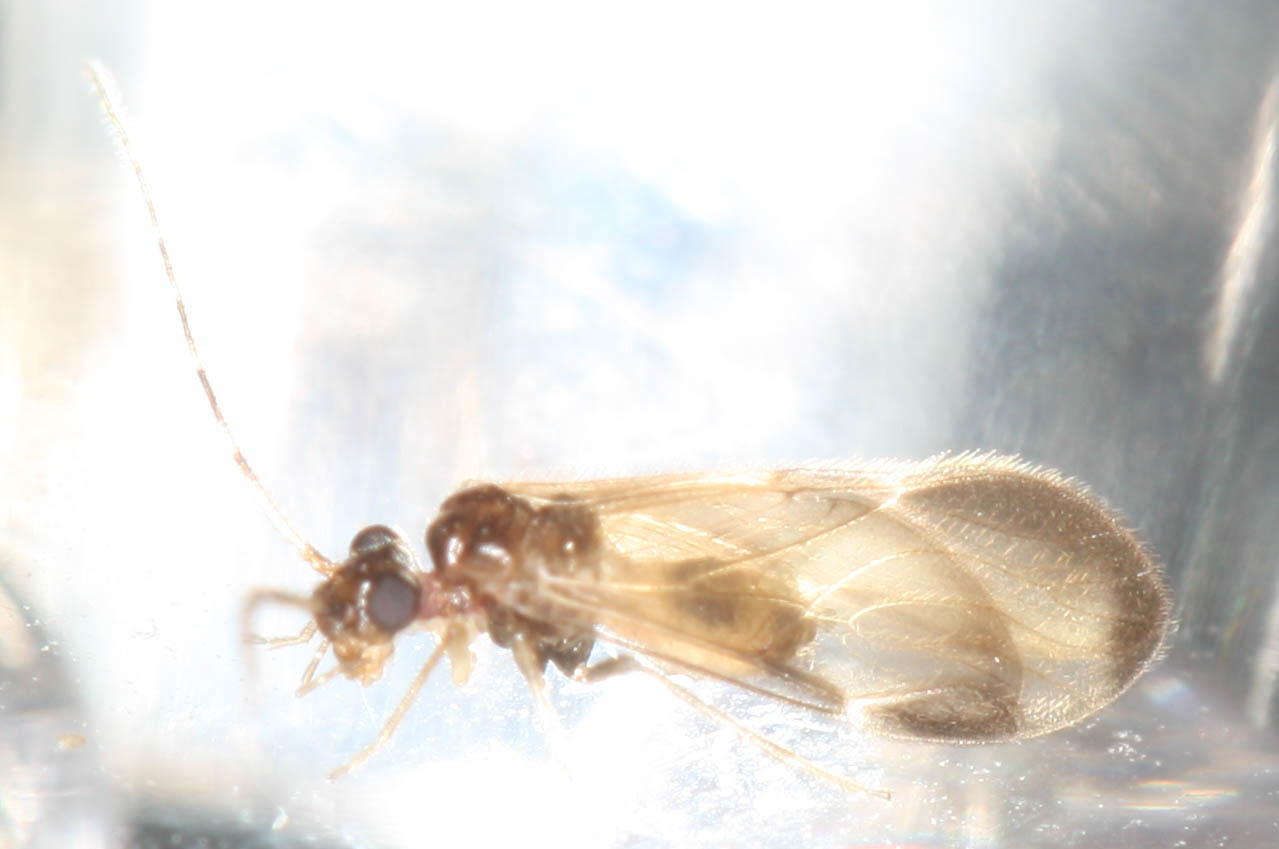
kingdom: Animalia
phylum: Arthropoda
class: Insecta
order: Psocodea
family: Amphipsocidae
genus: Polypsocus
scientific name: Polypsocus corruptus
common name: Corrupt barklouse
